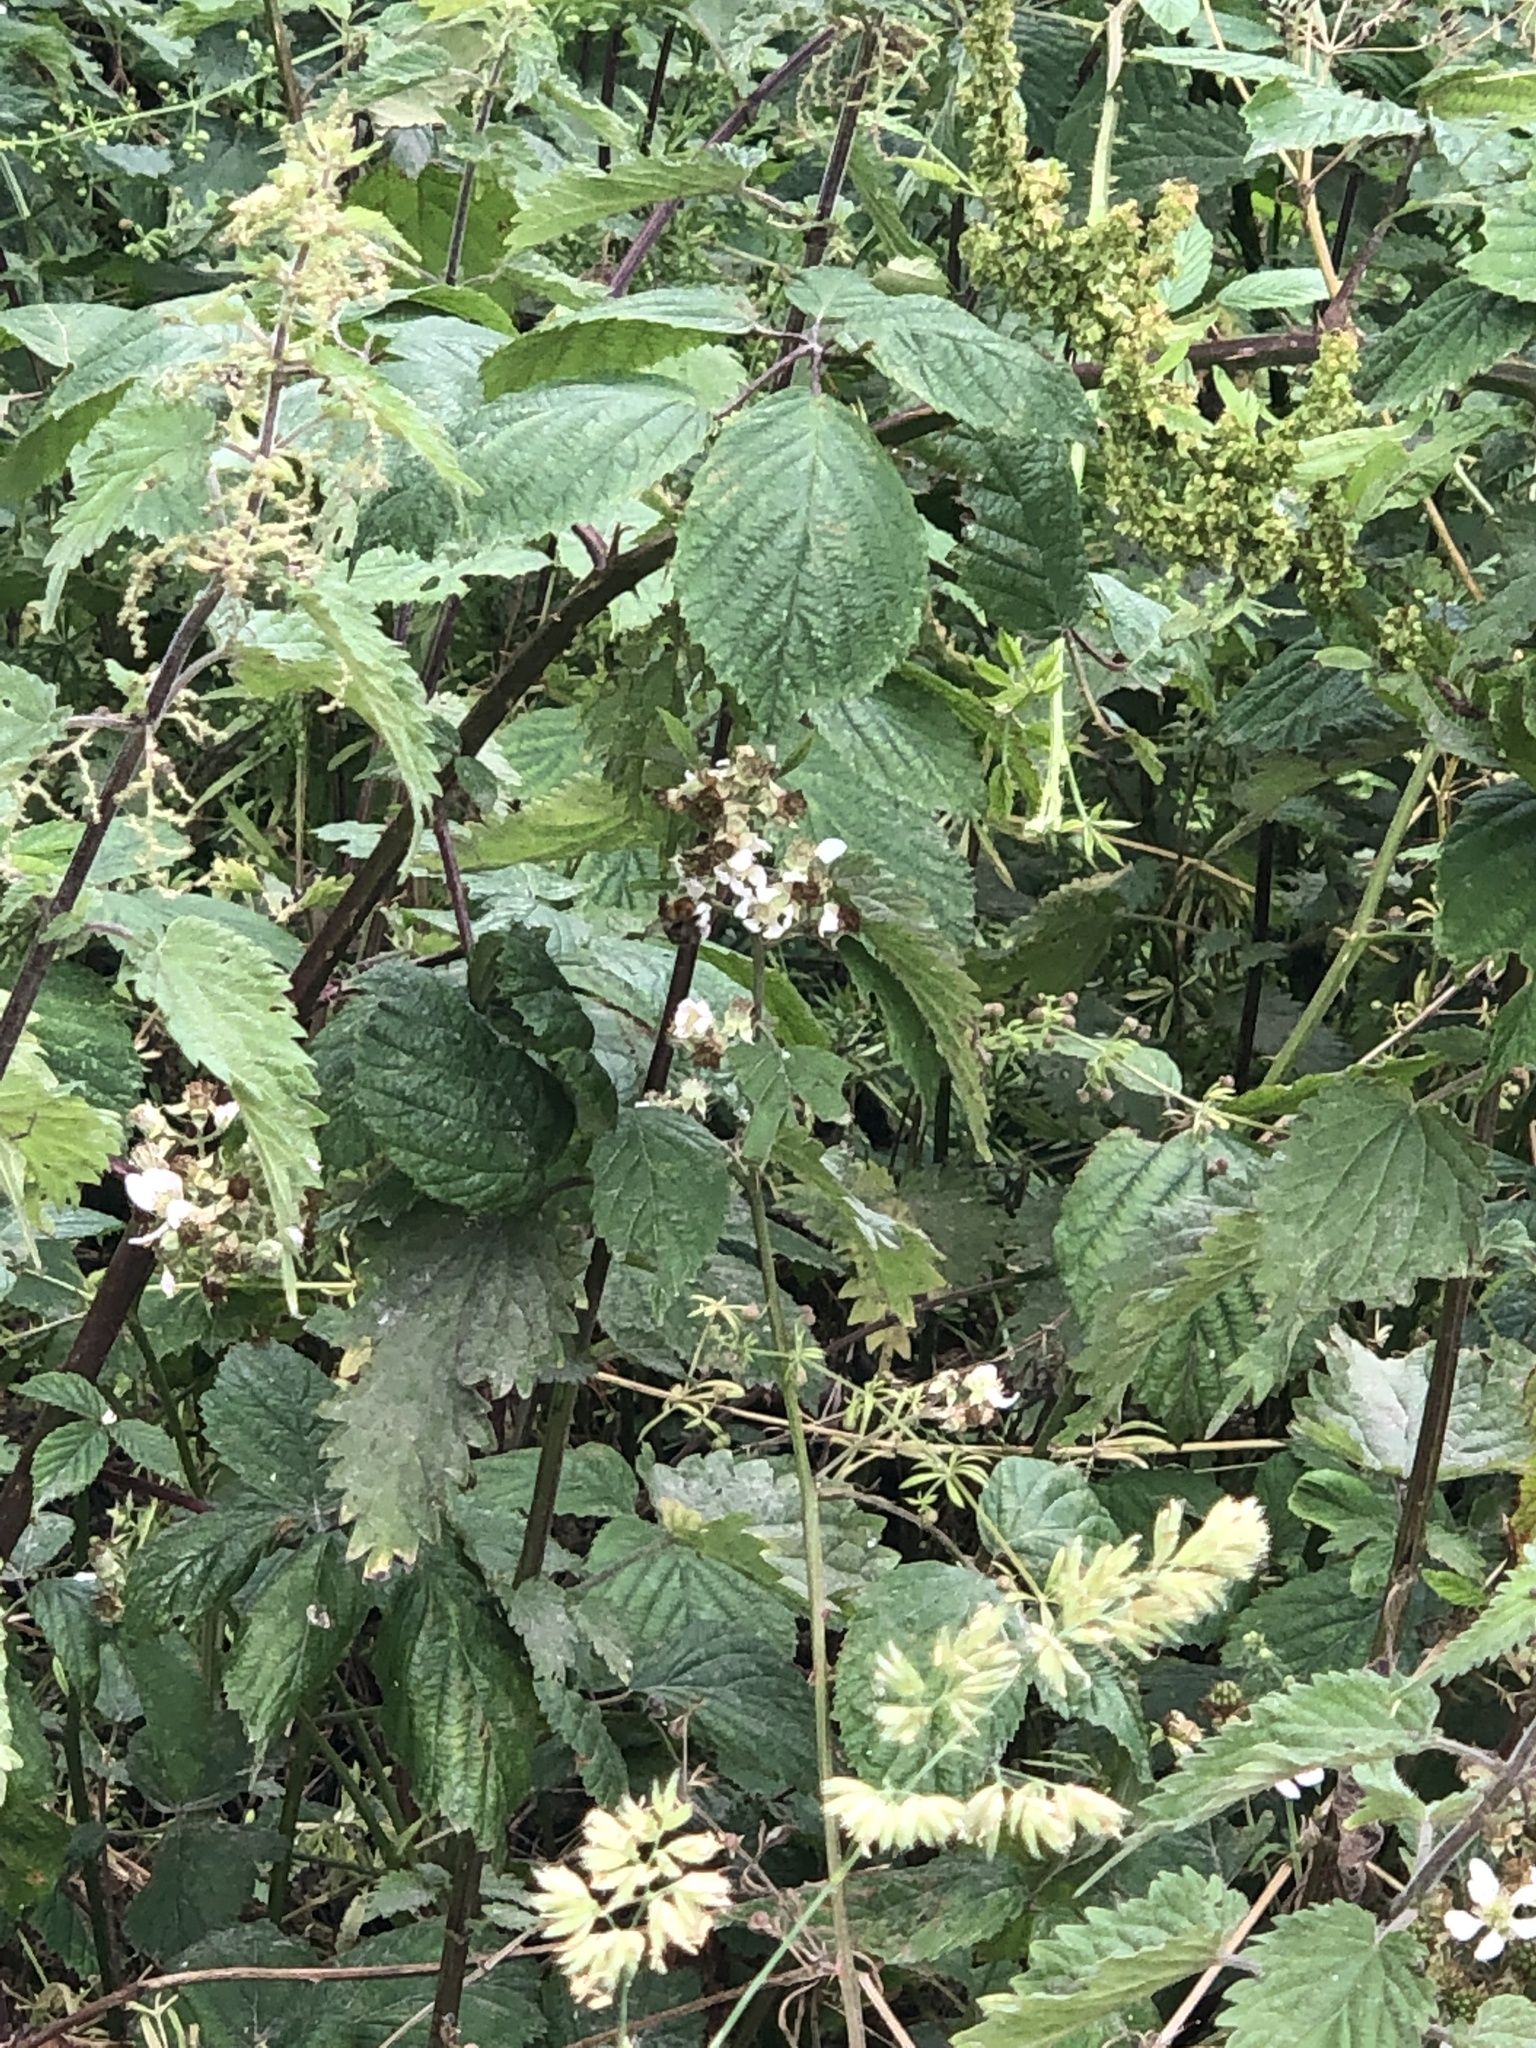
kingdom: Animalia
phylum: Arthropoda
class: Insecta
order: Hymenoptera
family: Apidae
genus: Apis
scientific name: Apis mellifera
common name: Honey bee
